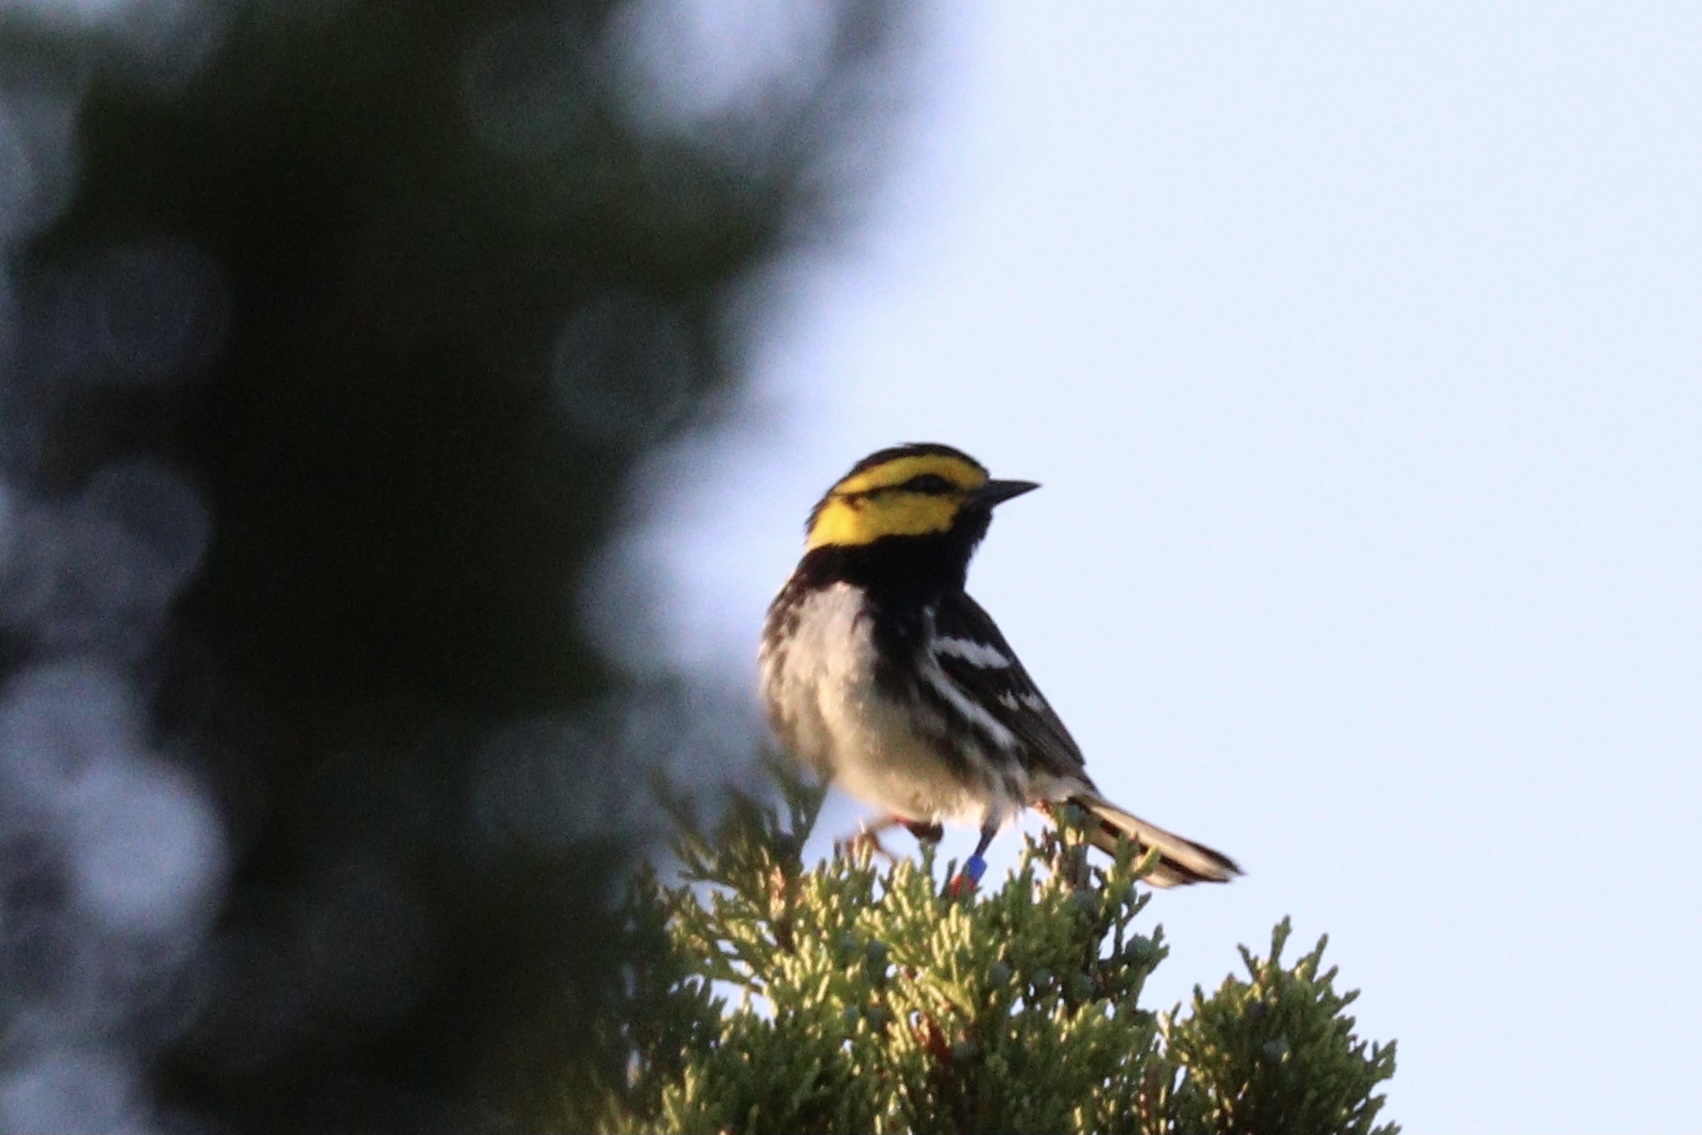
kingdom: Animalia
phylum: Chordata
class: Aves
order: Passeriformes
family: Parulidae
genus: Setophaga
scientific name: Setophaga chrysoparia
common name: Golden-cheeked warbler
